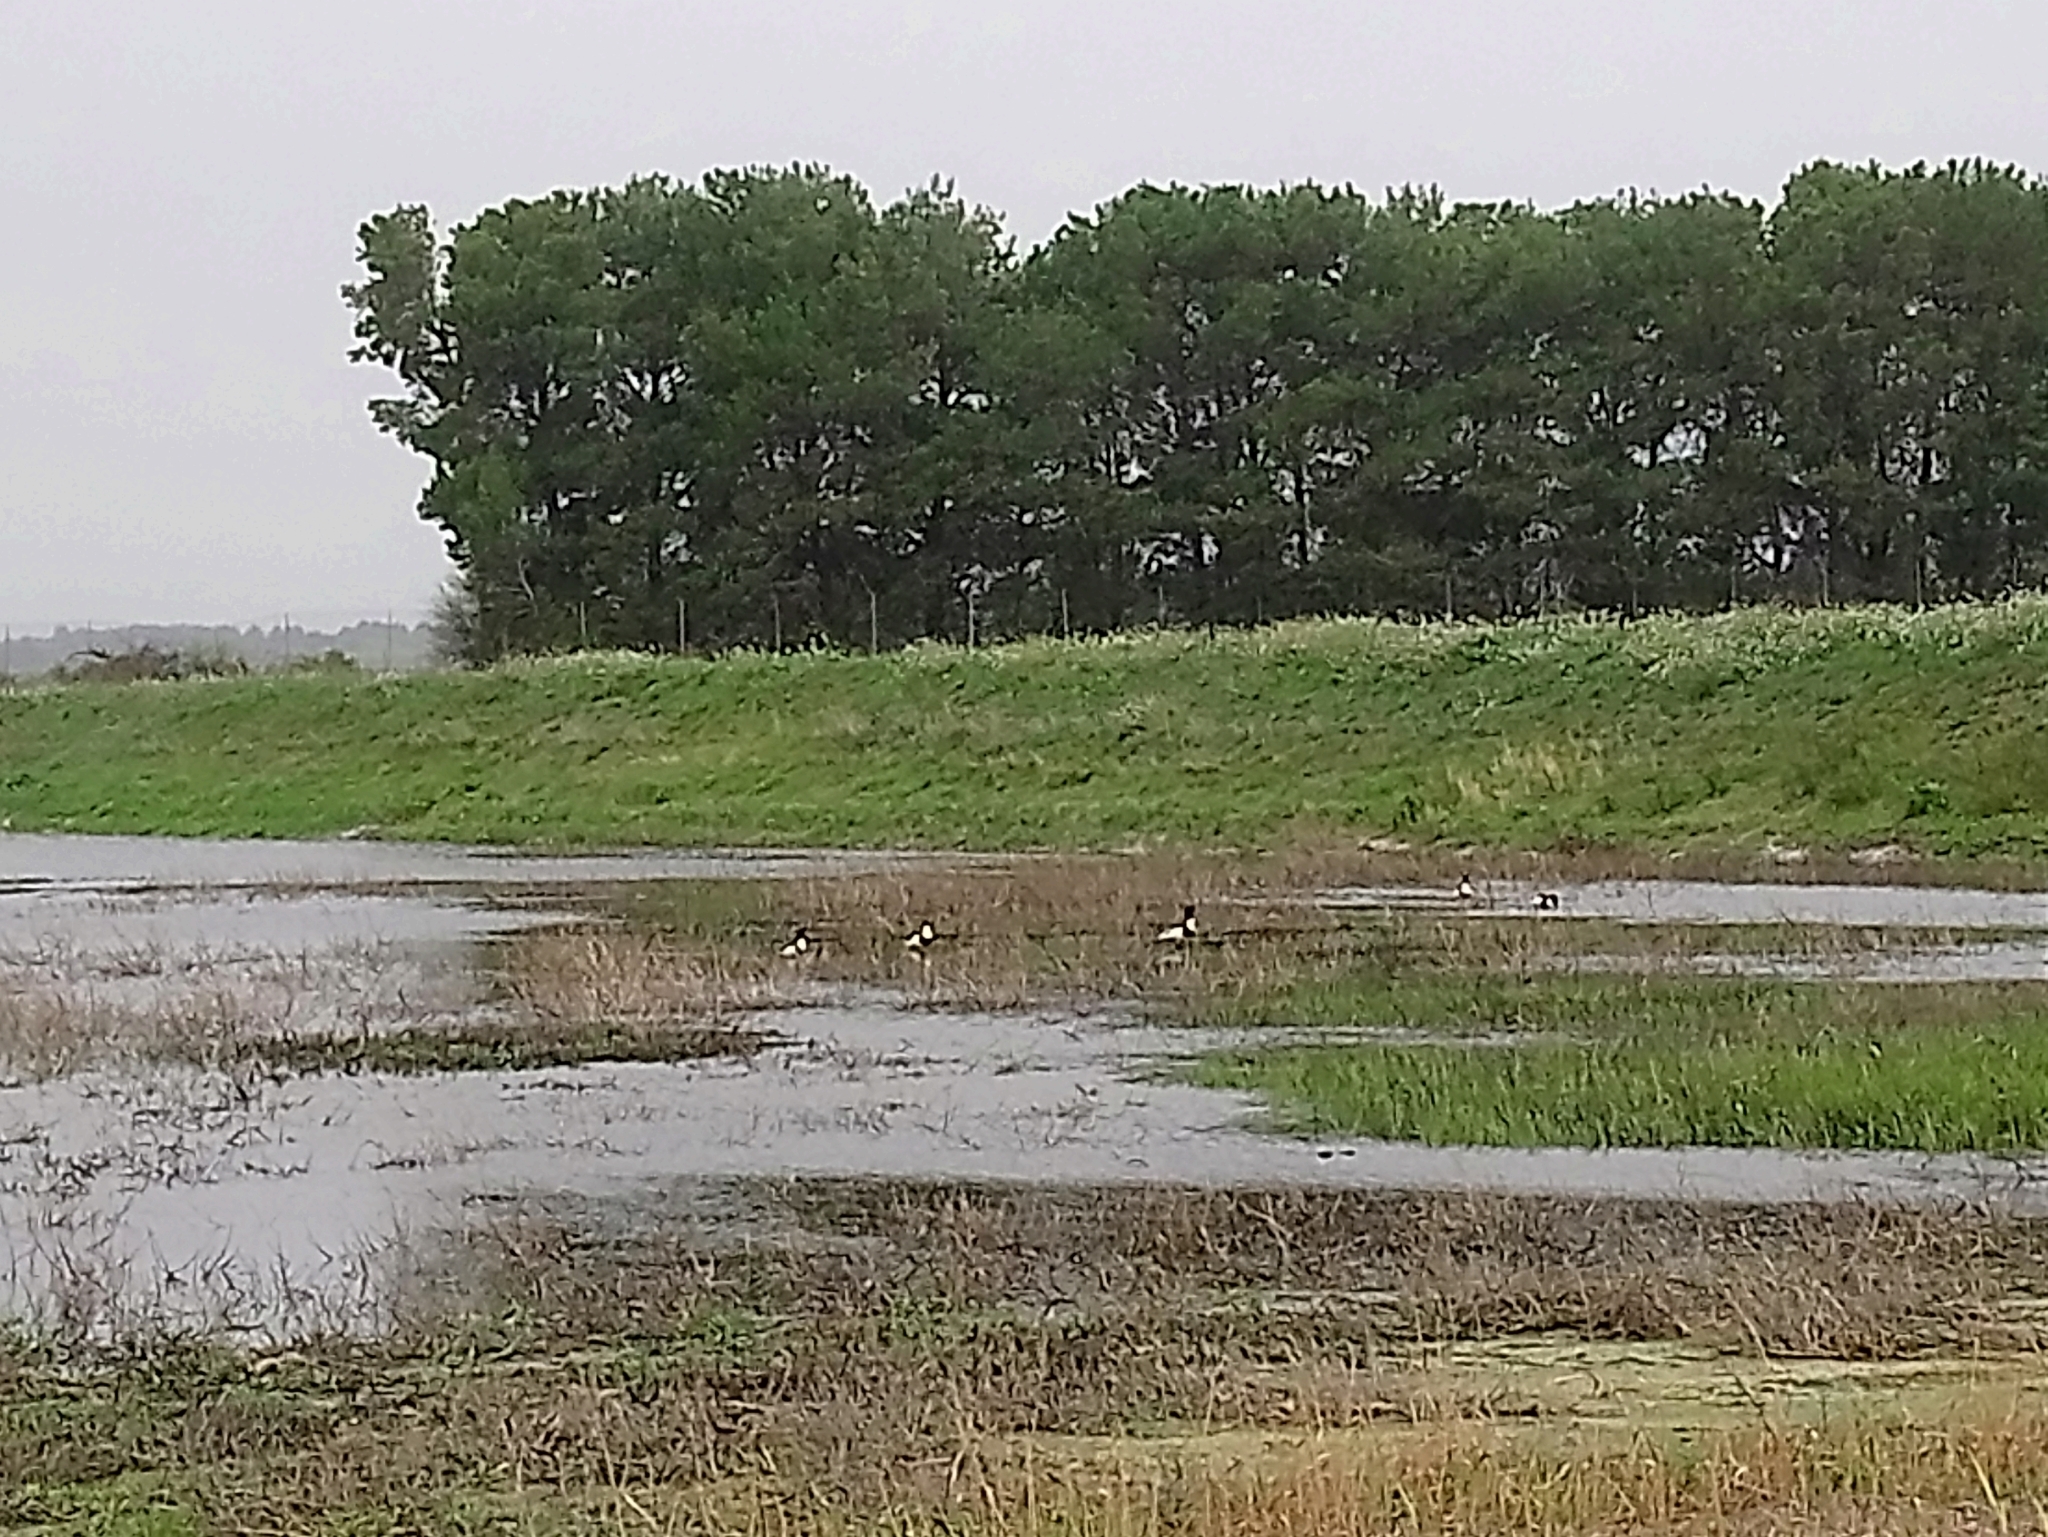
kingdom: Animalia
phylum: Chordata
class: Aves
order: Anseriformes
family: Anatidae
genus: Tadorna
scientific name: Tadorna tadorna
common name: Common shelduck
